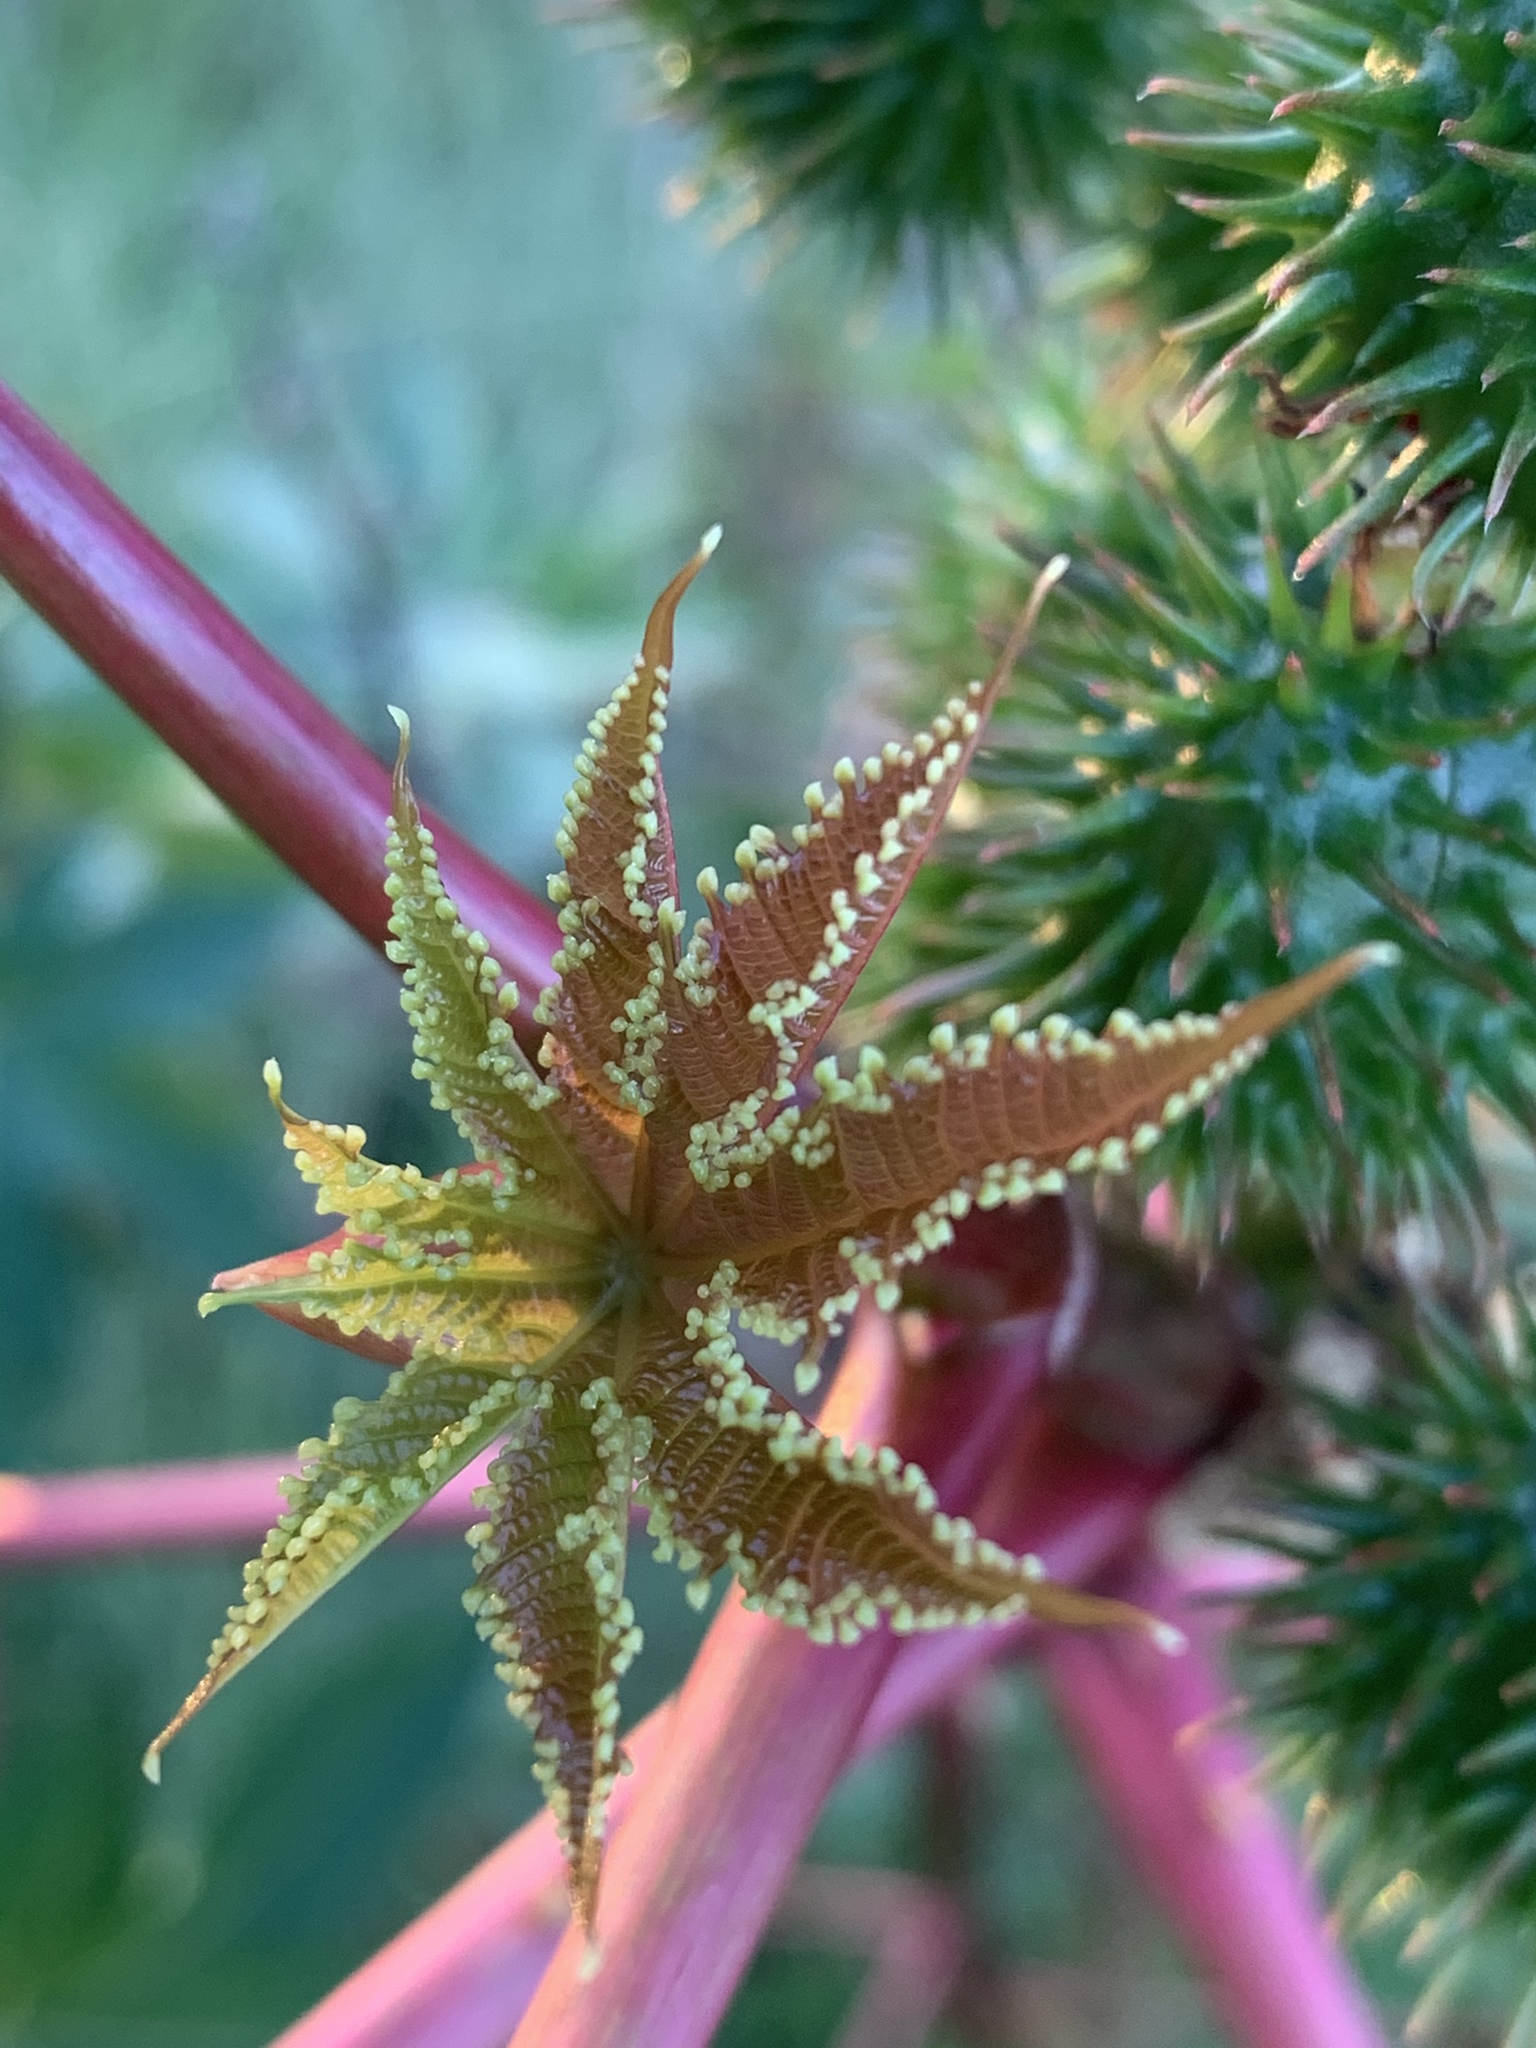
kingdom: Plantae
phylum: Tracheophyta
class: Magnoliopsida
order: Malpighiales
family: Euphorbiaceae
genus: Ricinus
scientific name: Ricinus communis
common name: Castor-oil-plant
